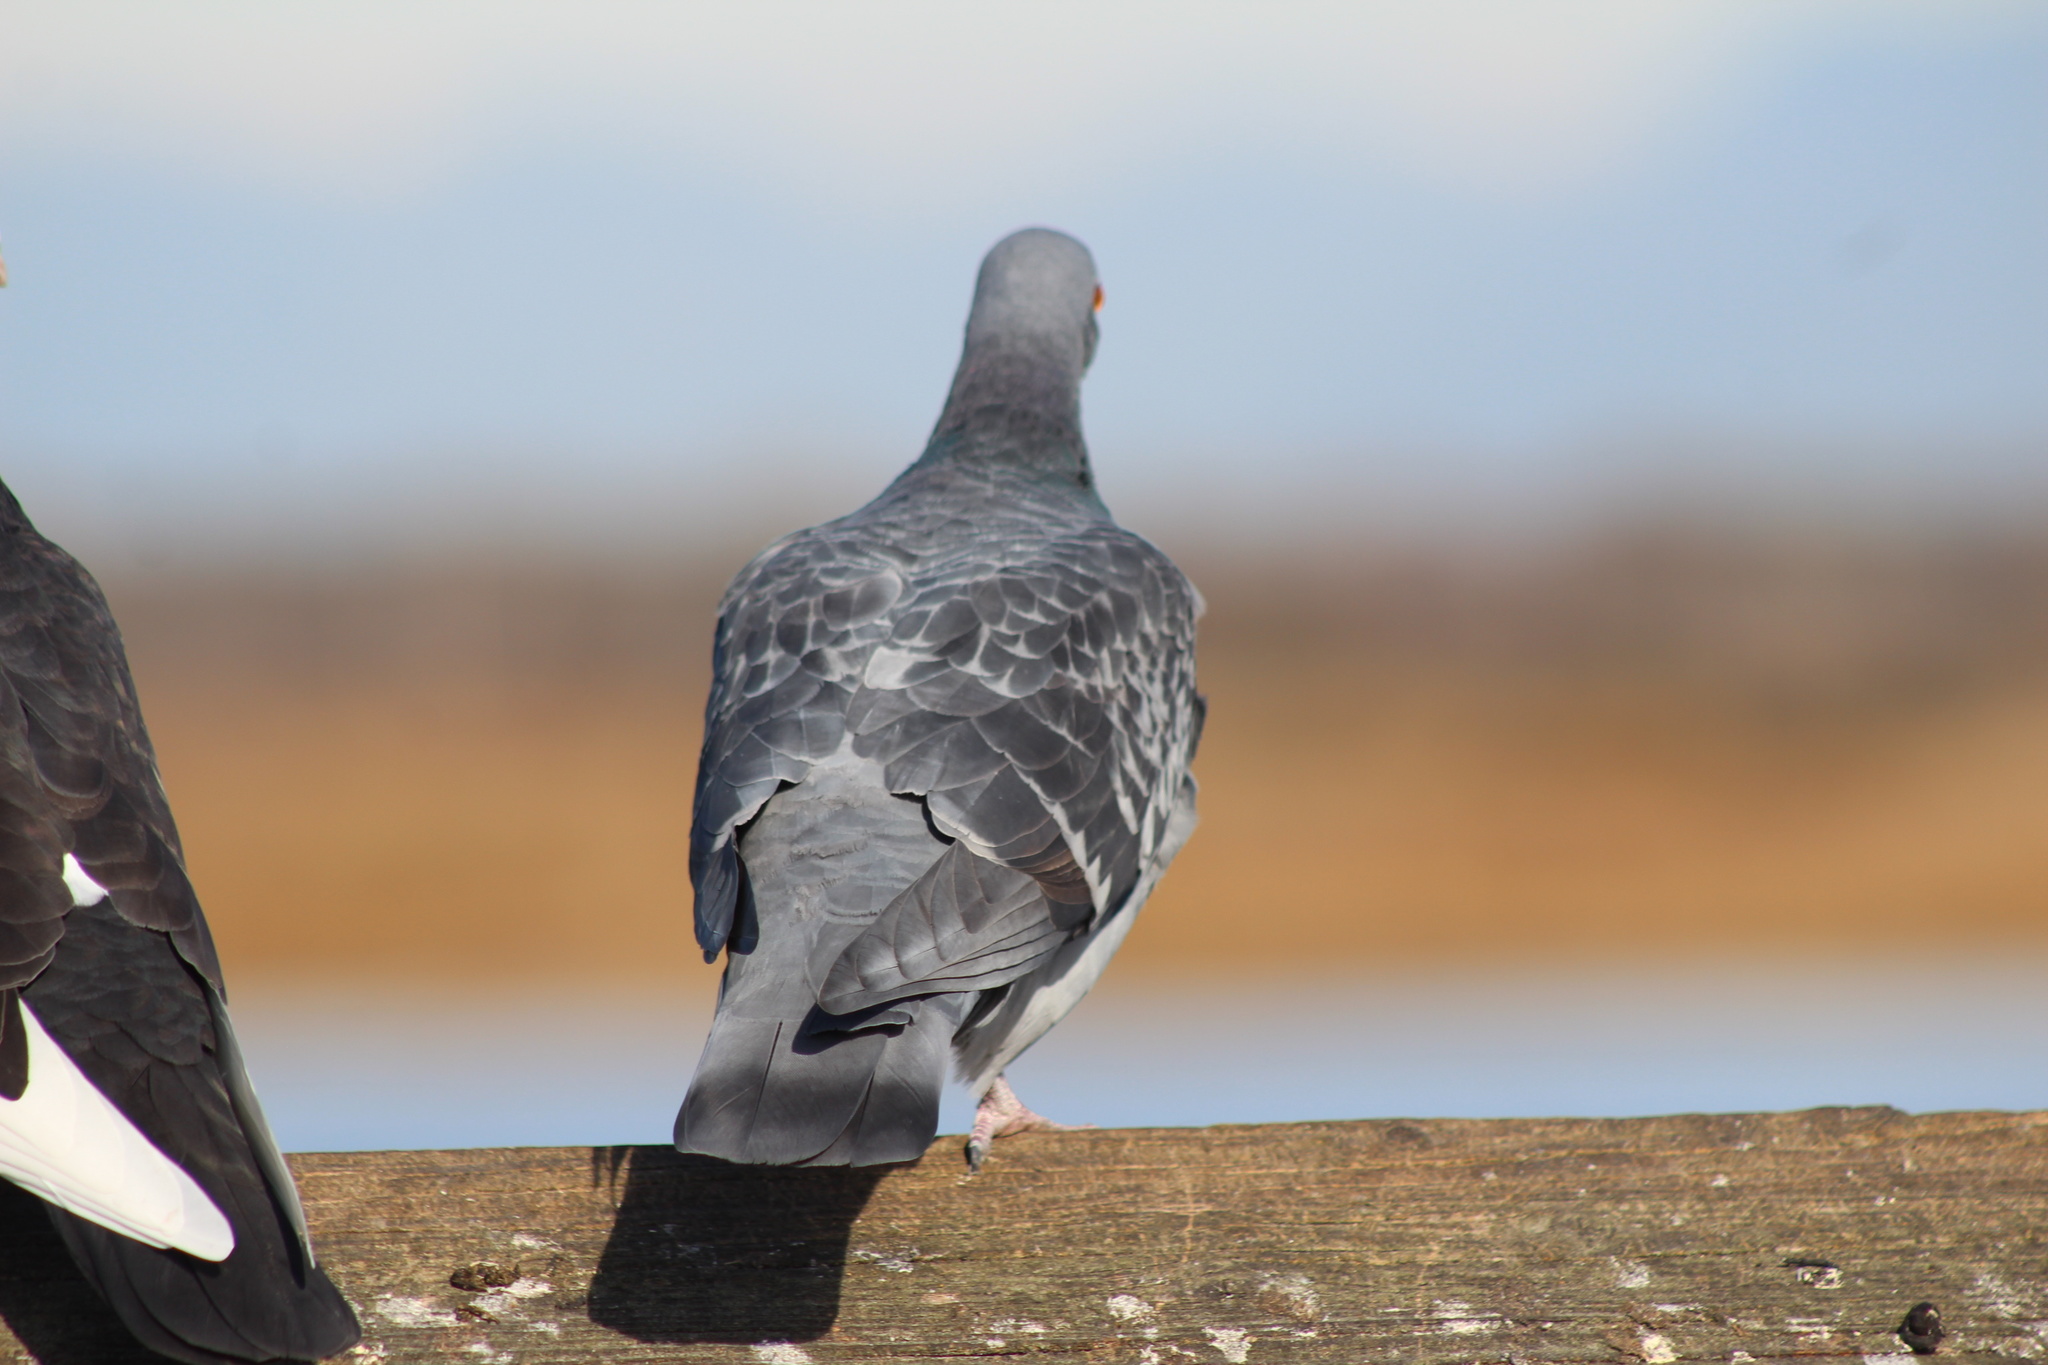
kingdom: Animalia
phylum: Chordata
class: Aves
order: Columbiformes
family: Columbidae
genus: Columba
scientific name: Columba livia
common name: Rock pigeon
